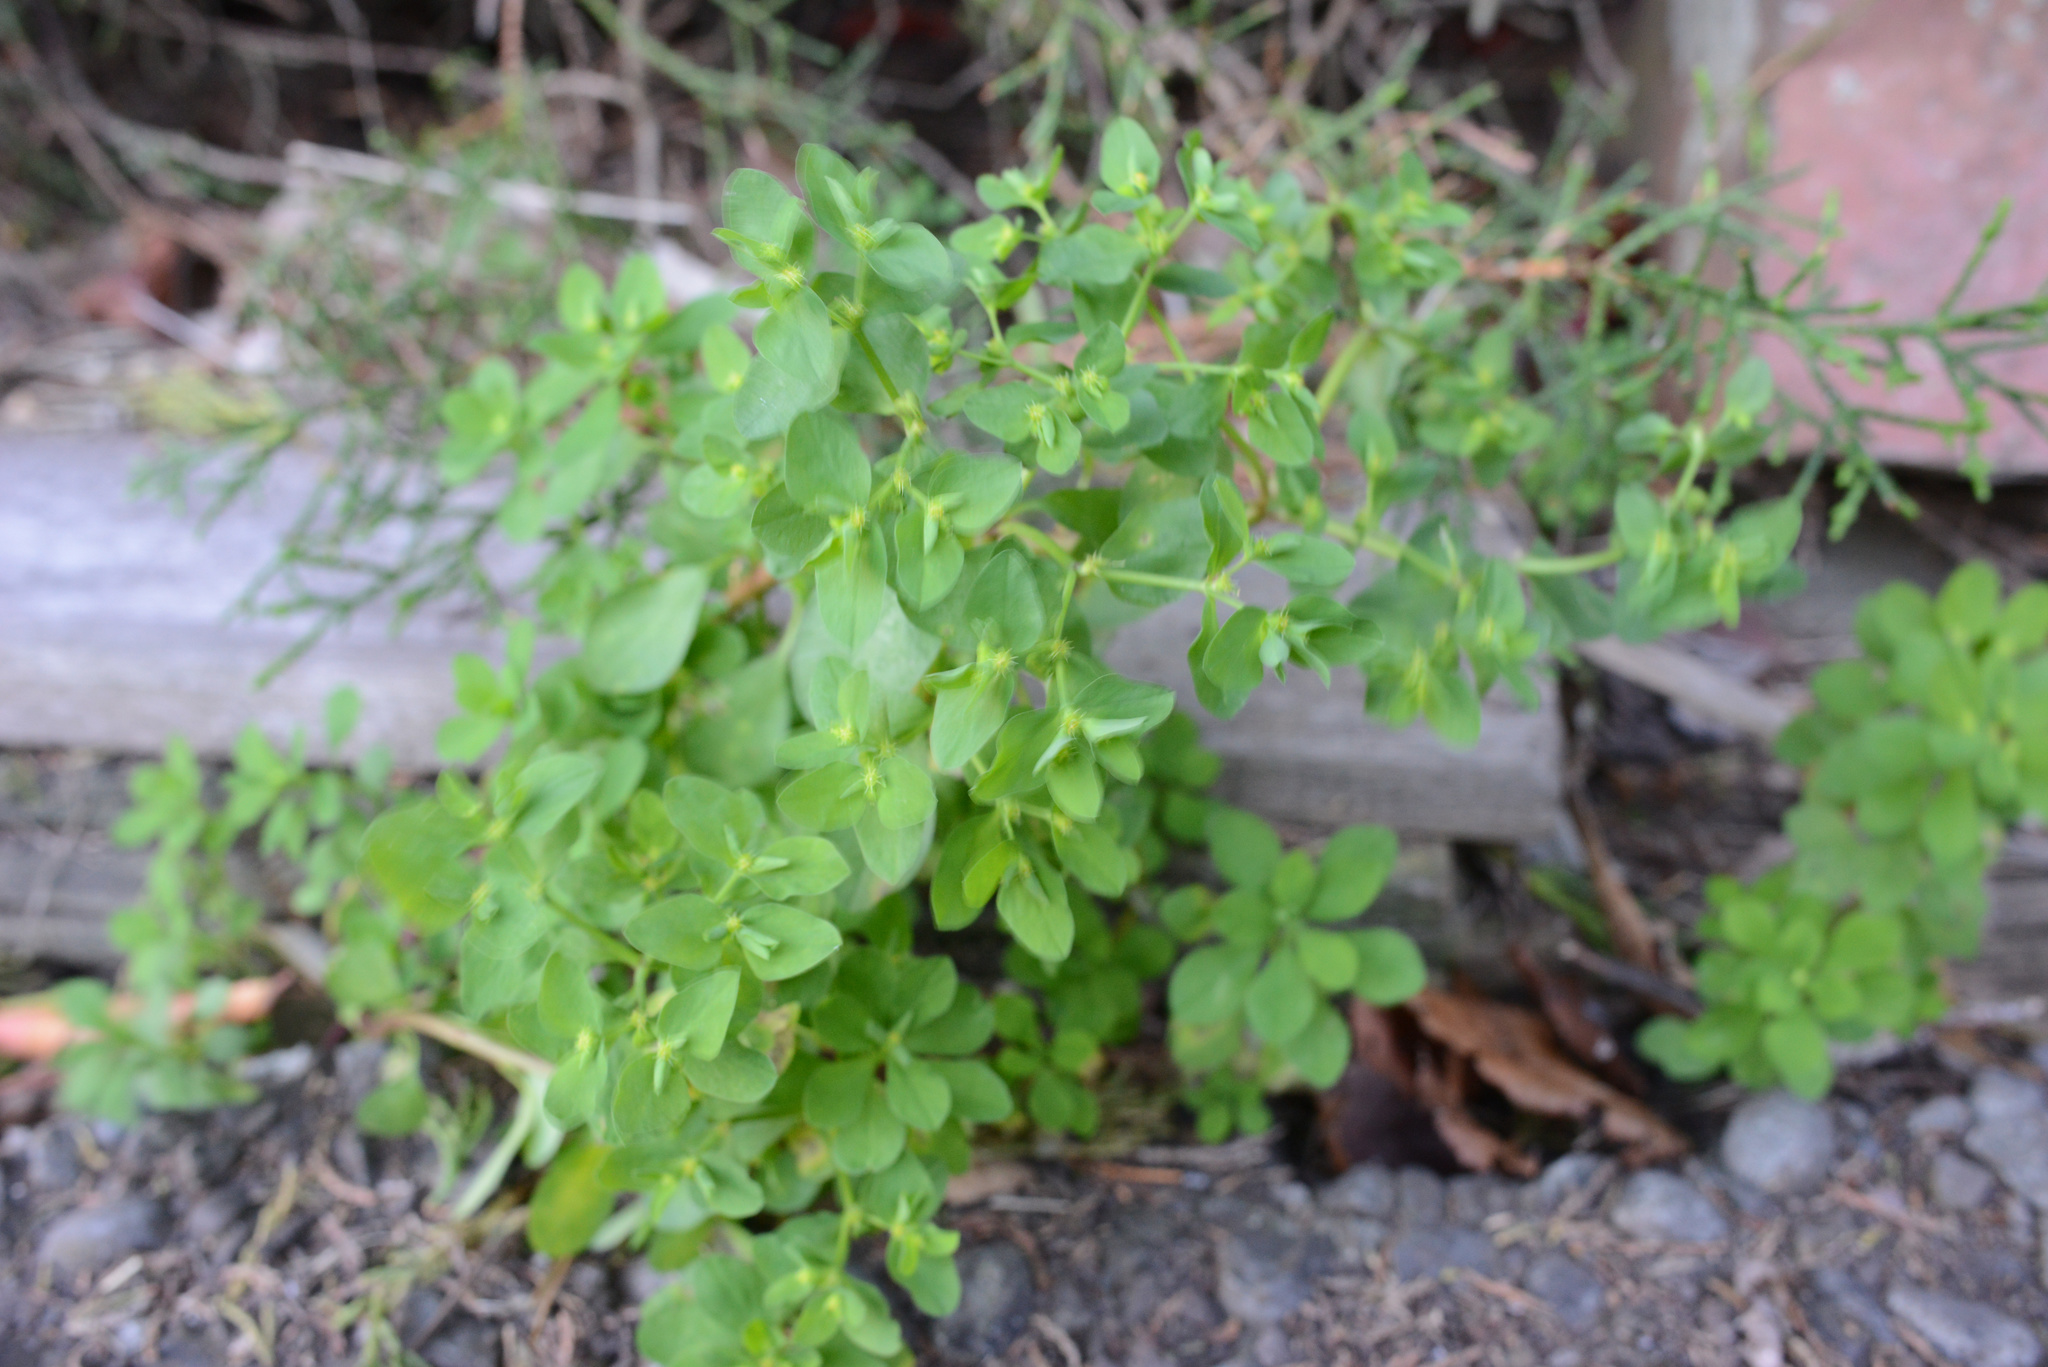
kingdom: Plantae
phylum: Tracheophyta
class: Magnoliopsida
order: Malpighiales
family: Euphorbiaceae
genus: Euphorbia
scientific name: Euphorbia peplus
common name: Petty spurge
